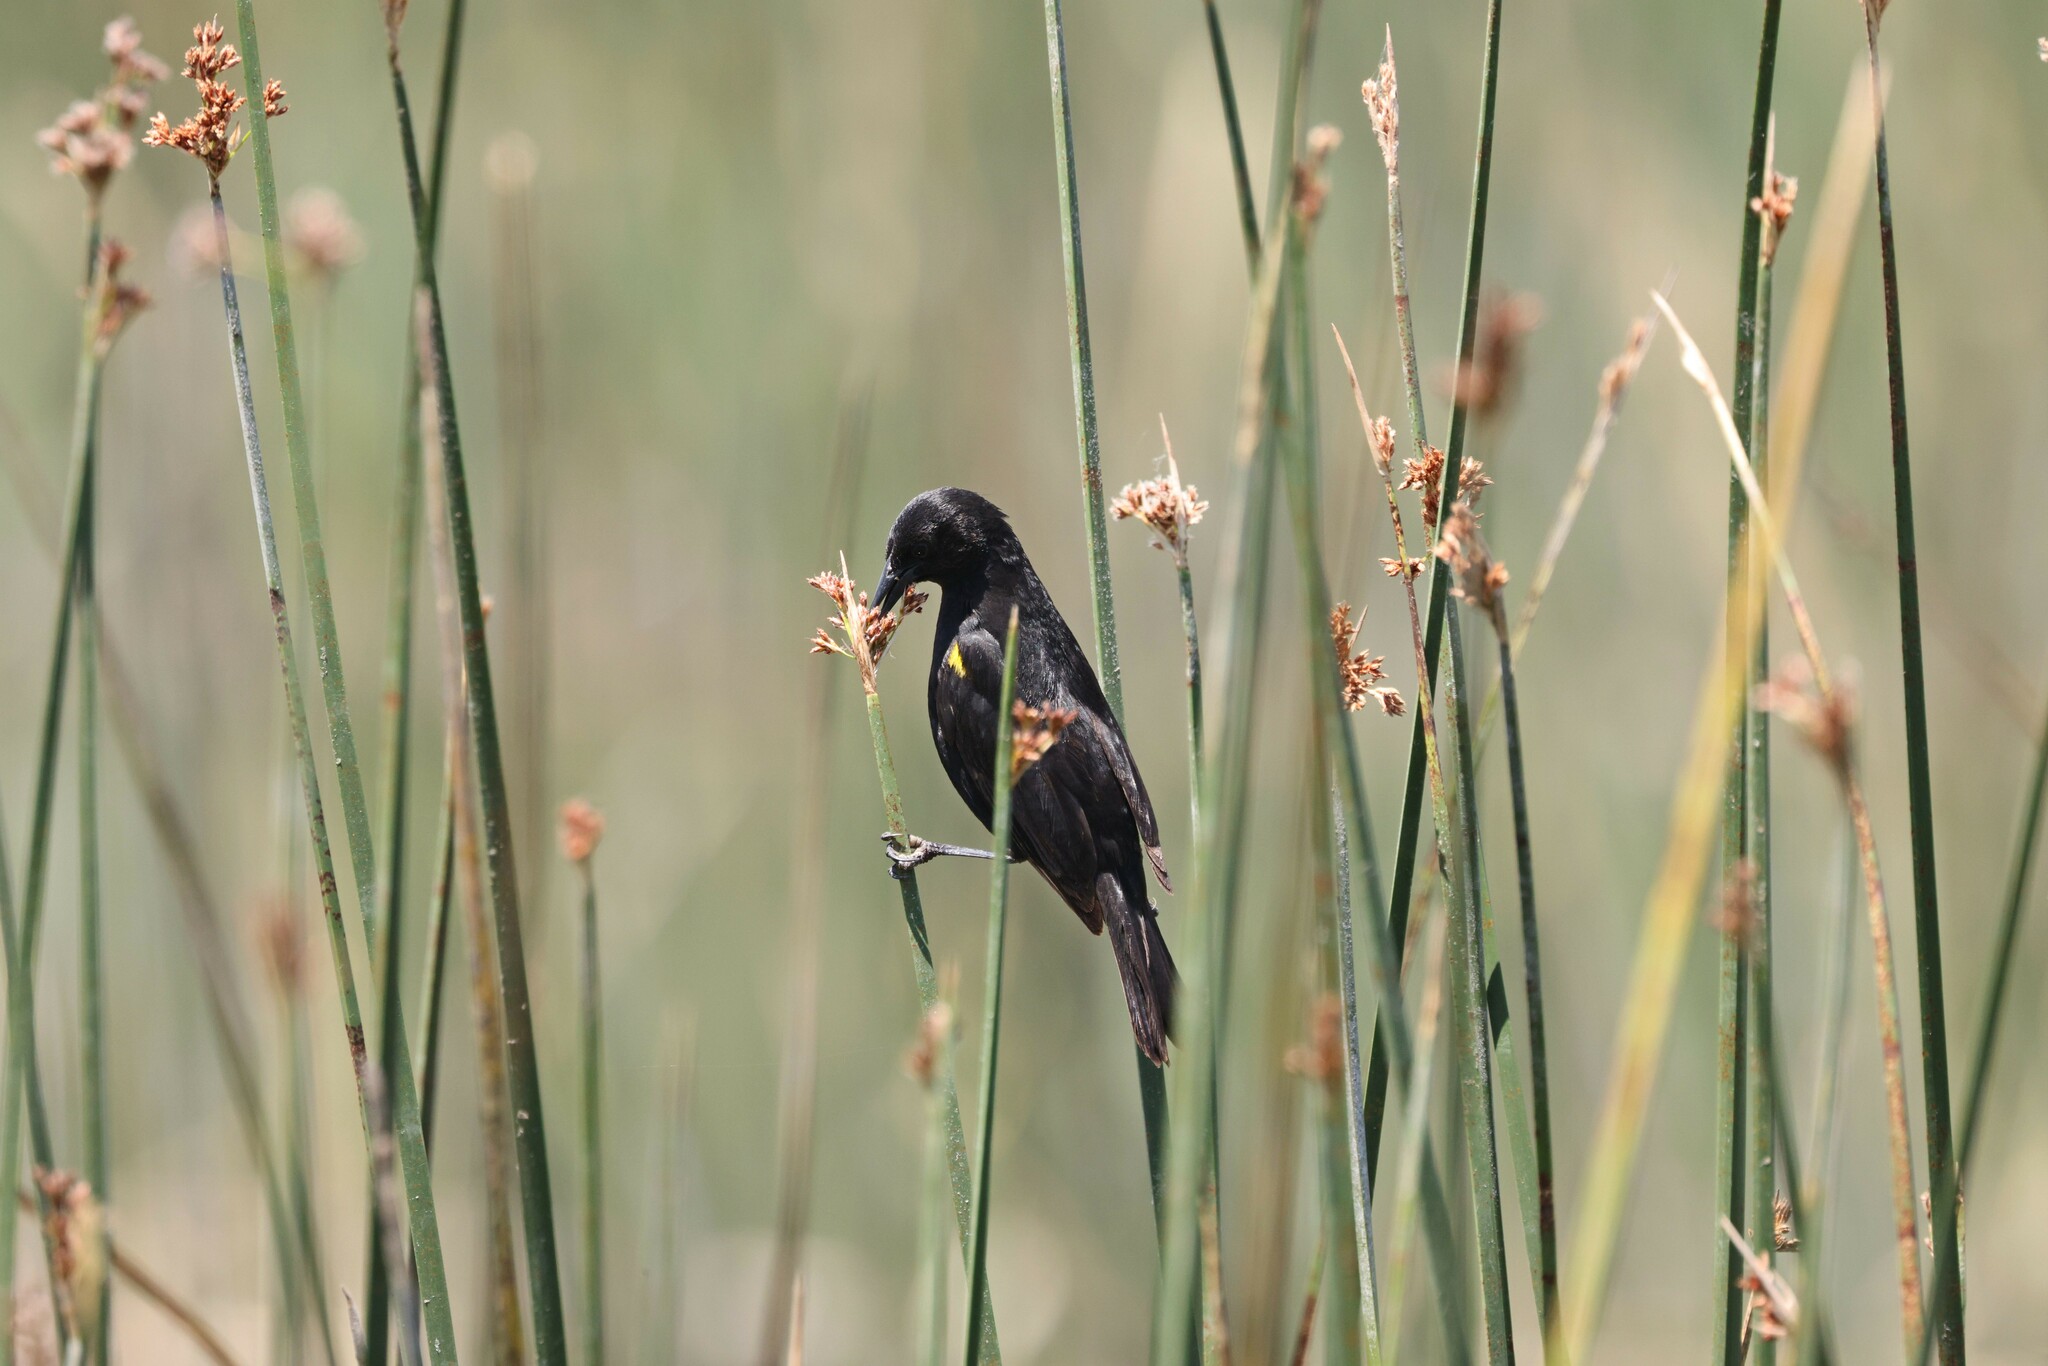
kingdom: Animalia
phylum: Chordata
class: Aves
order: Passeriformes
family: Icteridae
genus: Agelasticus
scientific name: Agelasticus thilius
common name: Yellow-winged blackbird
